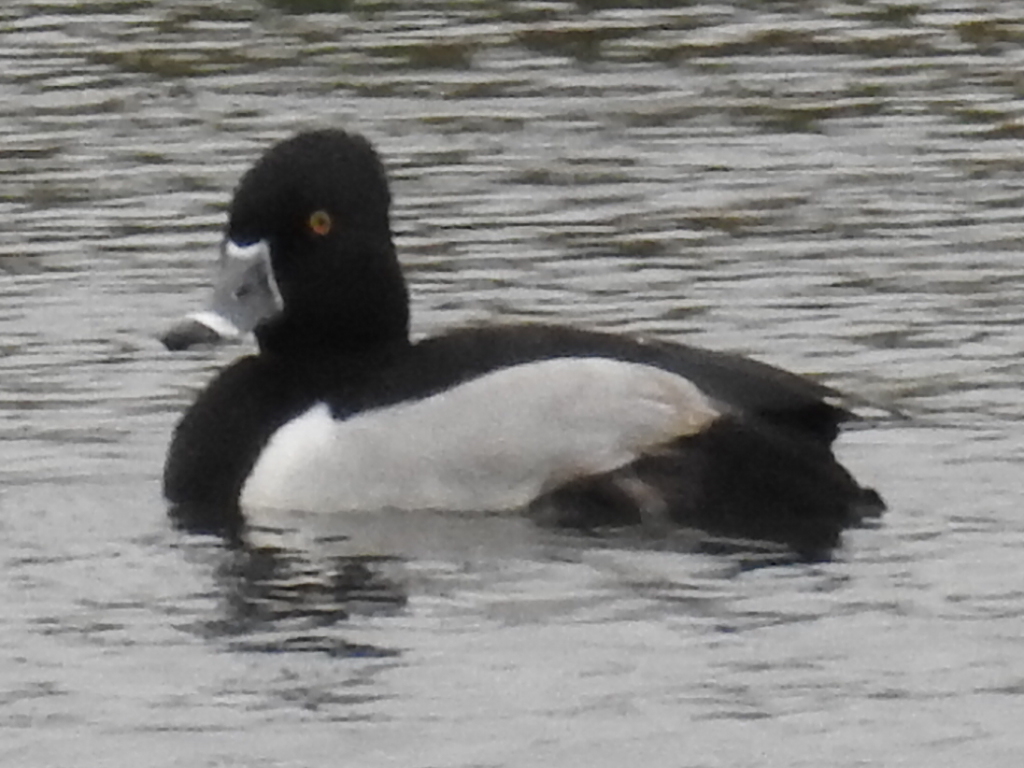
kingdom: Animalia
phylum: Chordata
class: Aves
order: Anseriformes
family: Anatidae
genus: Aythya
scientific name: Aythya collaris
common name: Ring-necked duck
